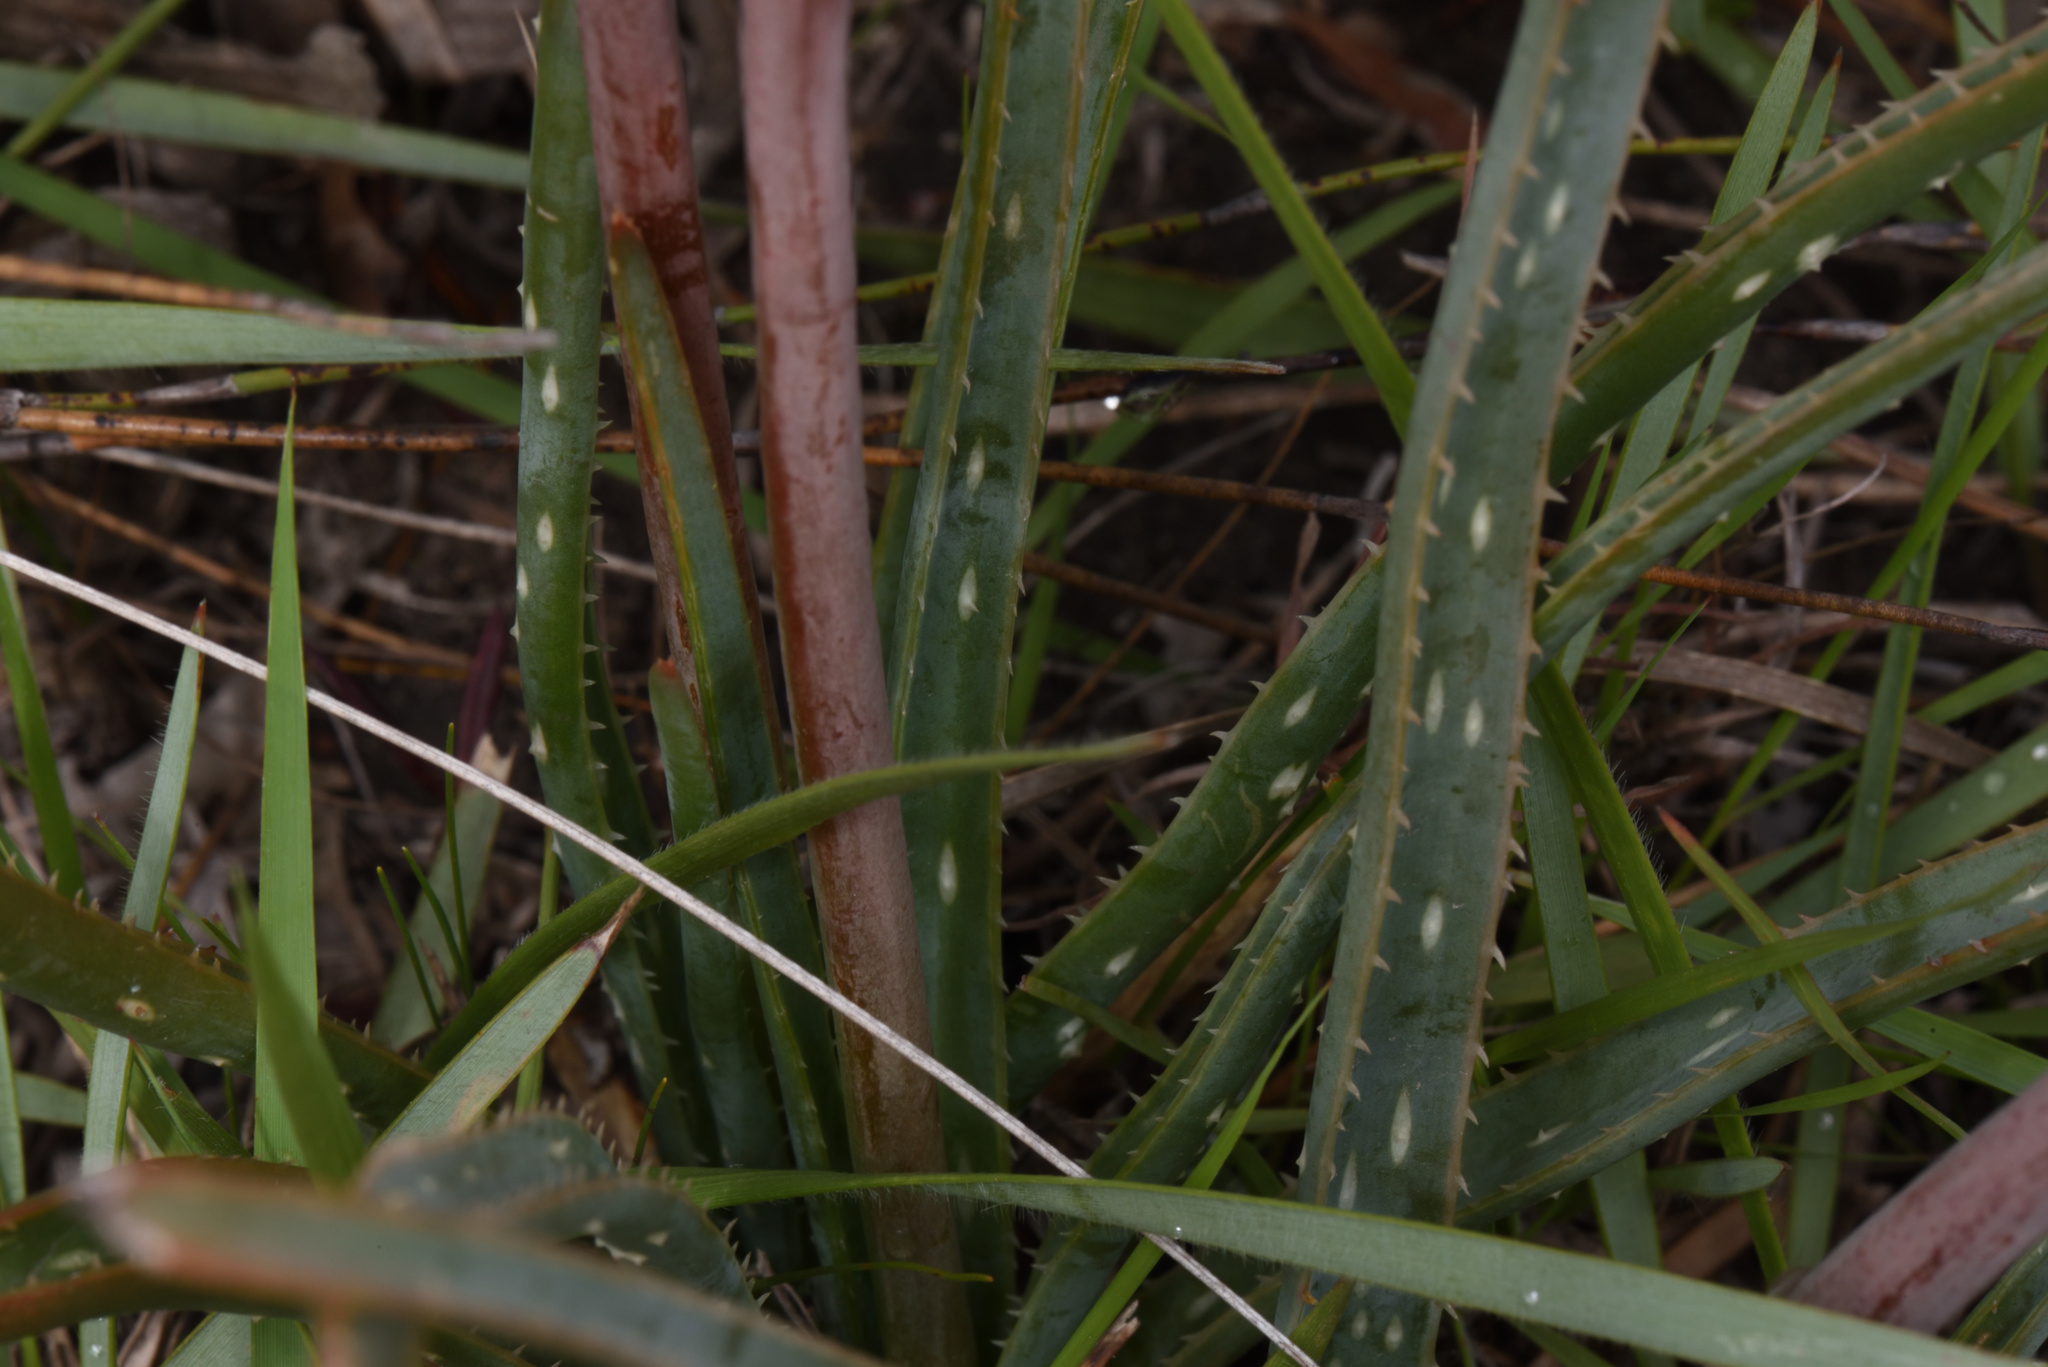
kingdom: Plantae
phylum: Tracheophyta
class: Liliopsida
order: Asparagales
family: Asphodelaceae
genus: Aloe
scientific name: Aloe micracantha
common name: Fynbos grass aloe
